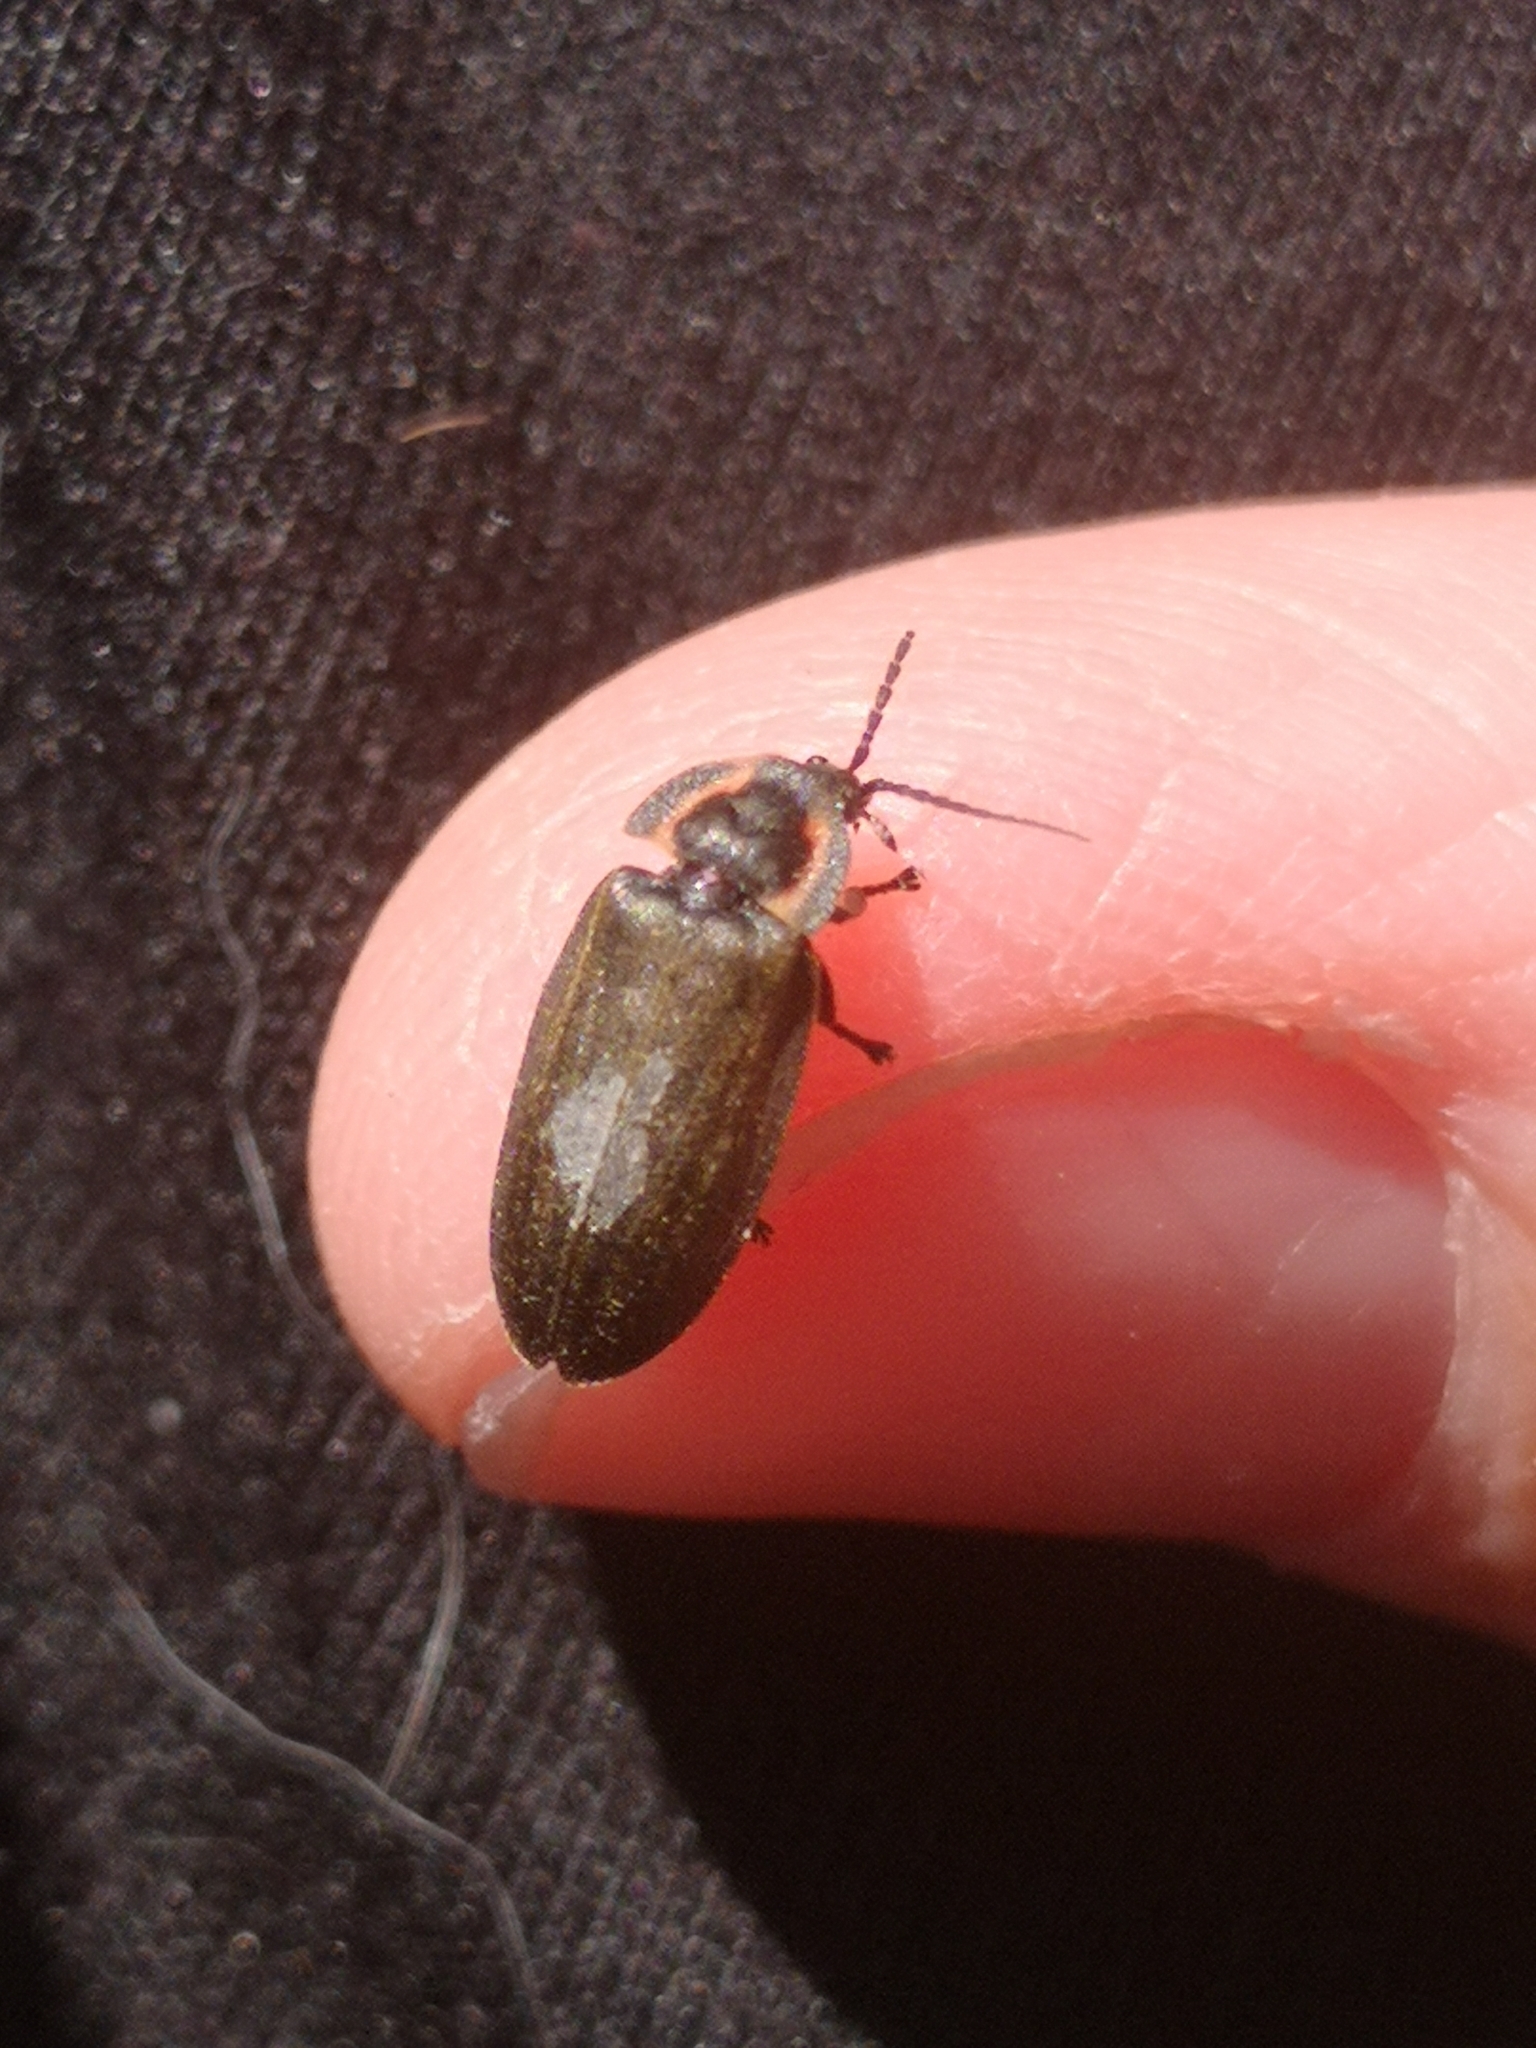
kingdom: Animalia
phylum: Arthropoda
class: Insecta
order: Coleoptera
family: Lampyridae
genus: Photinus
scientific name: Photinus corrusca
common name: Winter firefly
